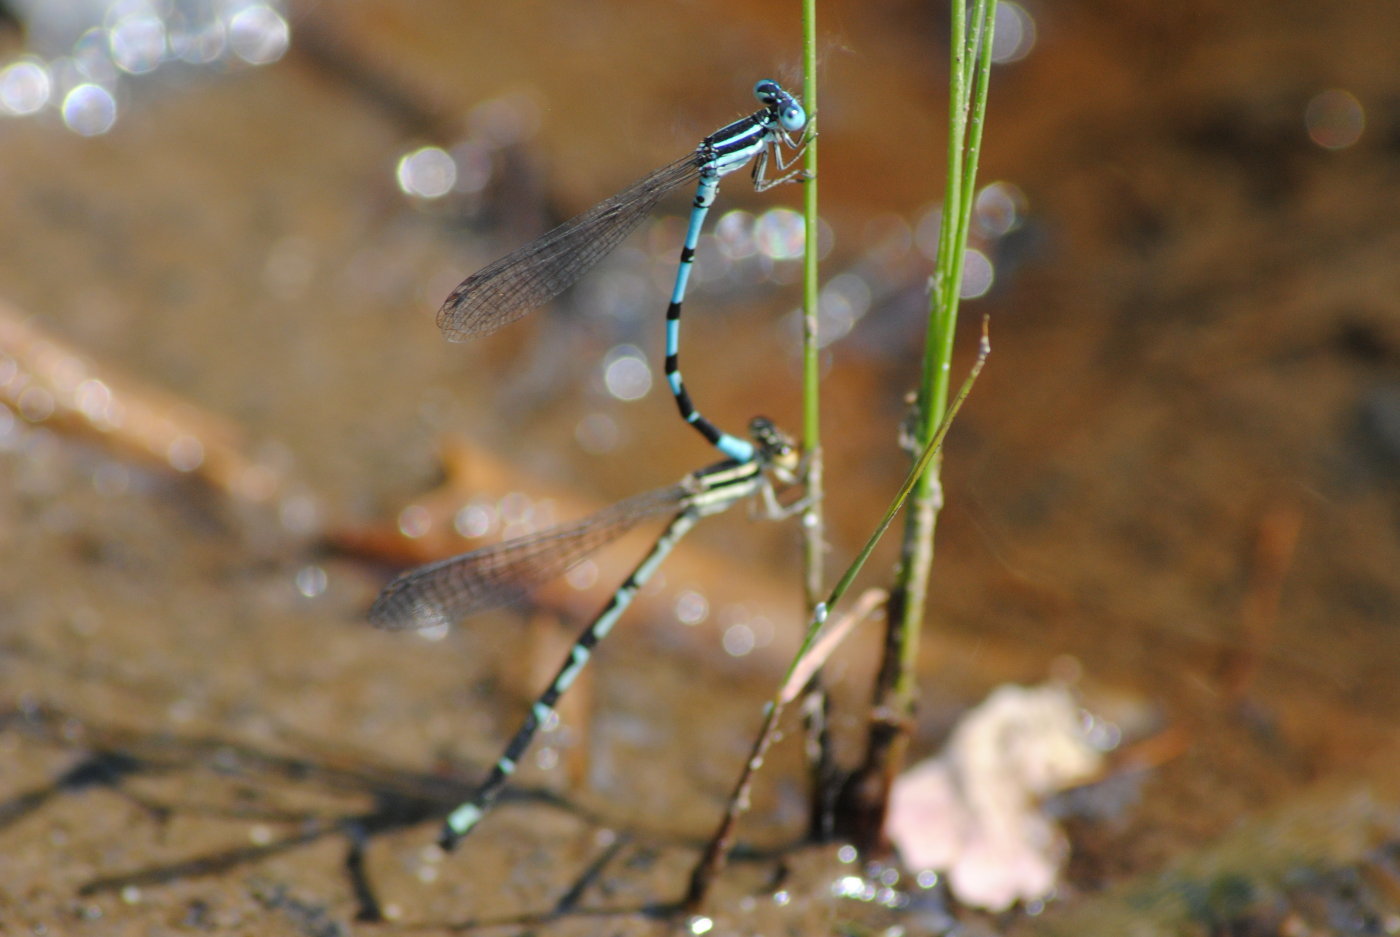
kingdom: Animalia
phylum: Arthropoda
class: Insecta
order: Odonata
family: Coenagrionidae
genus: Argia
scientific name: Argia bipunctulata
